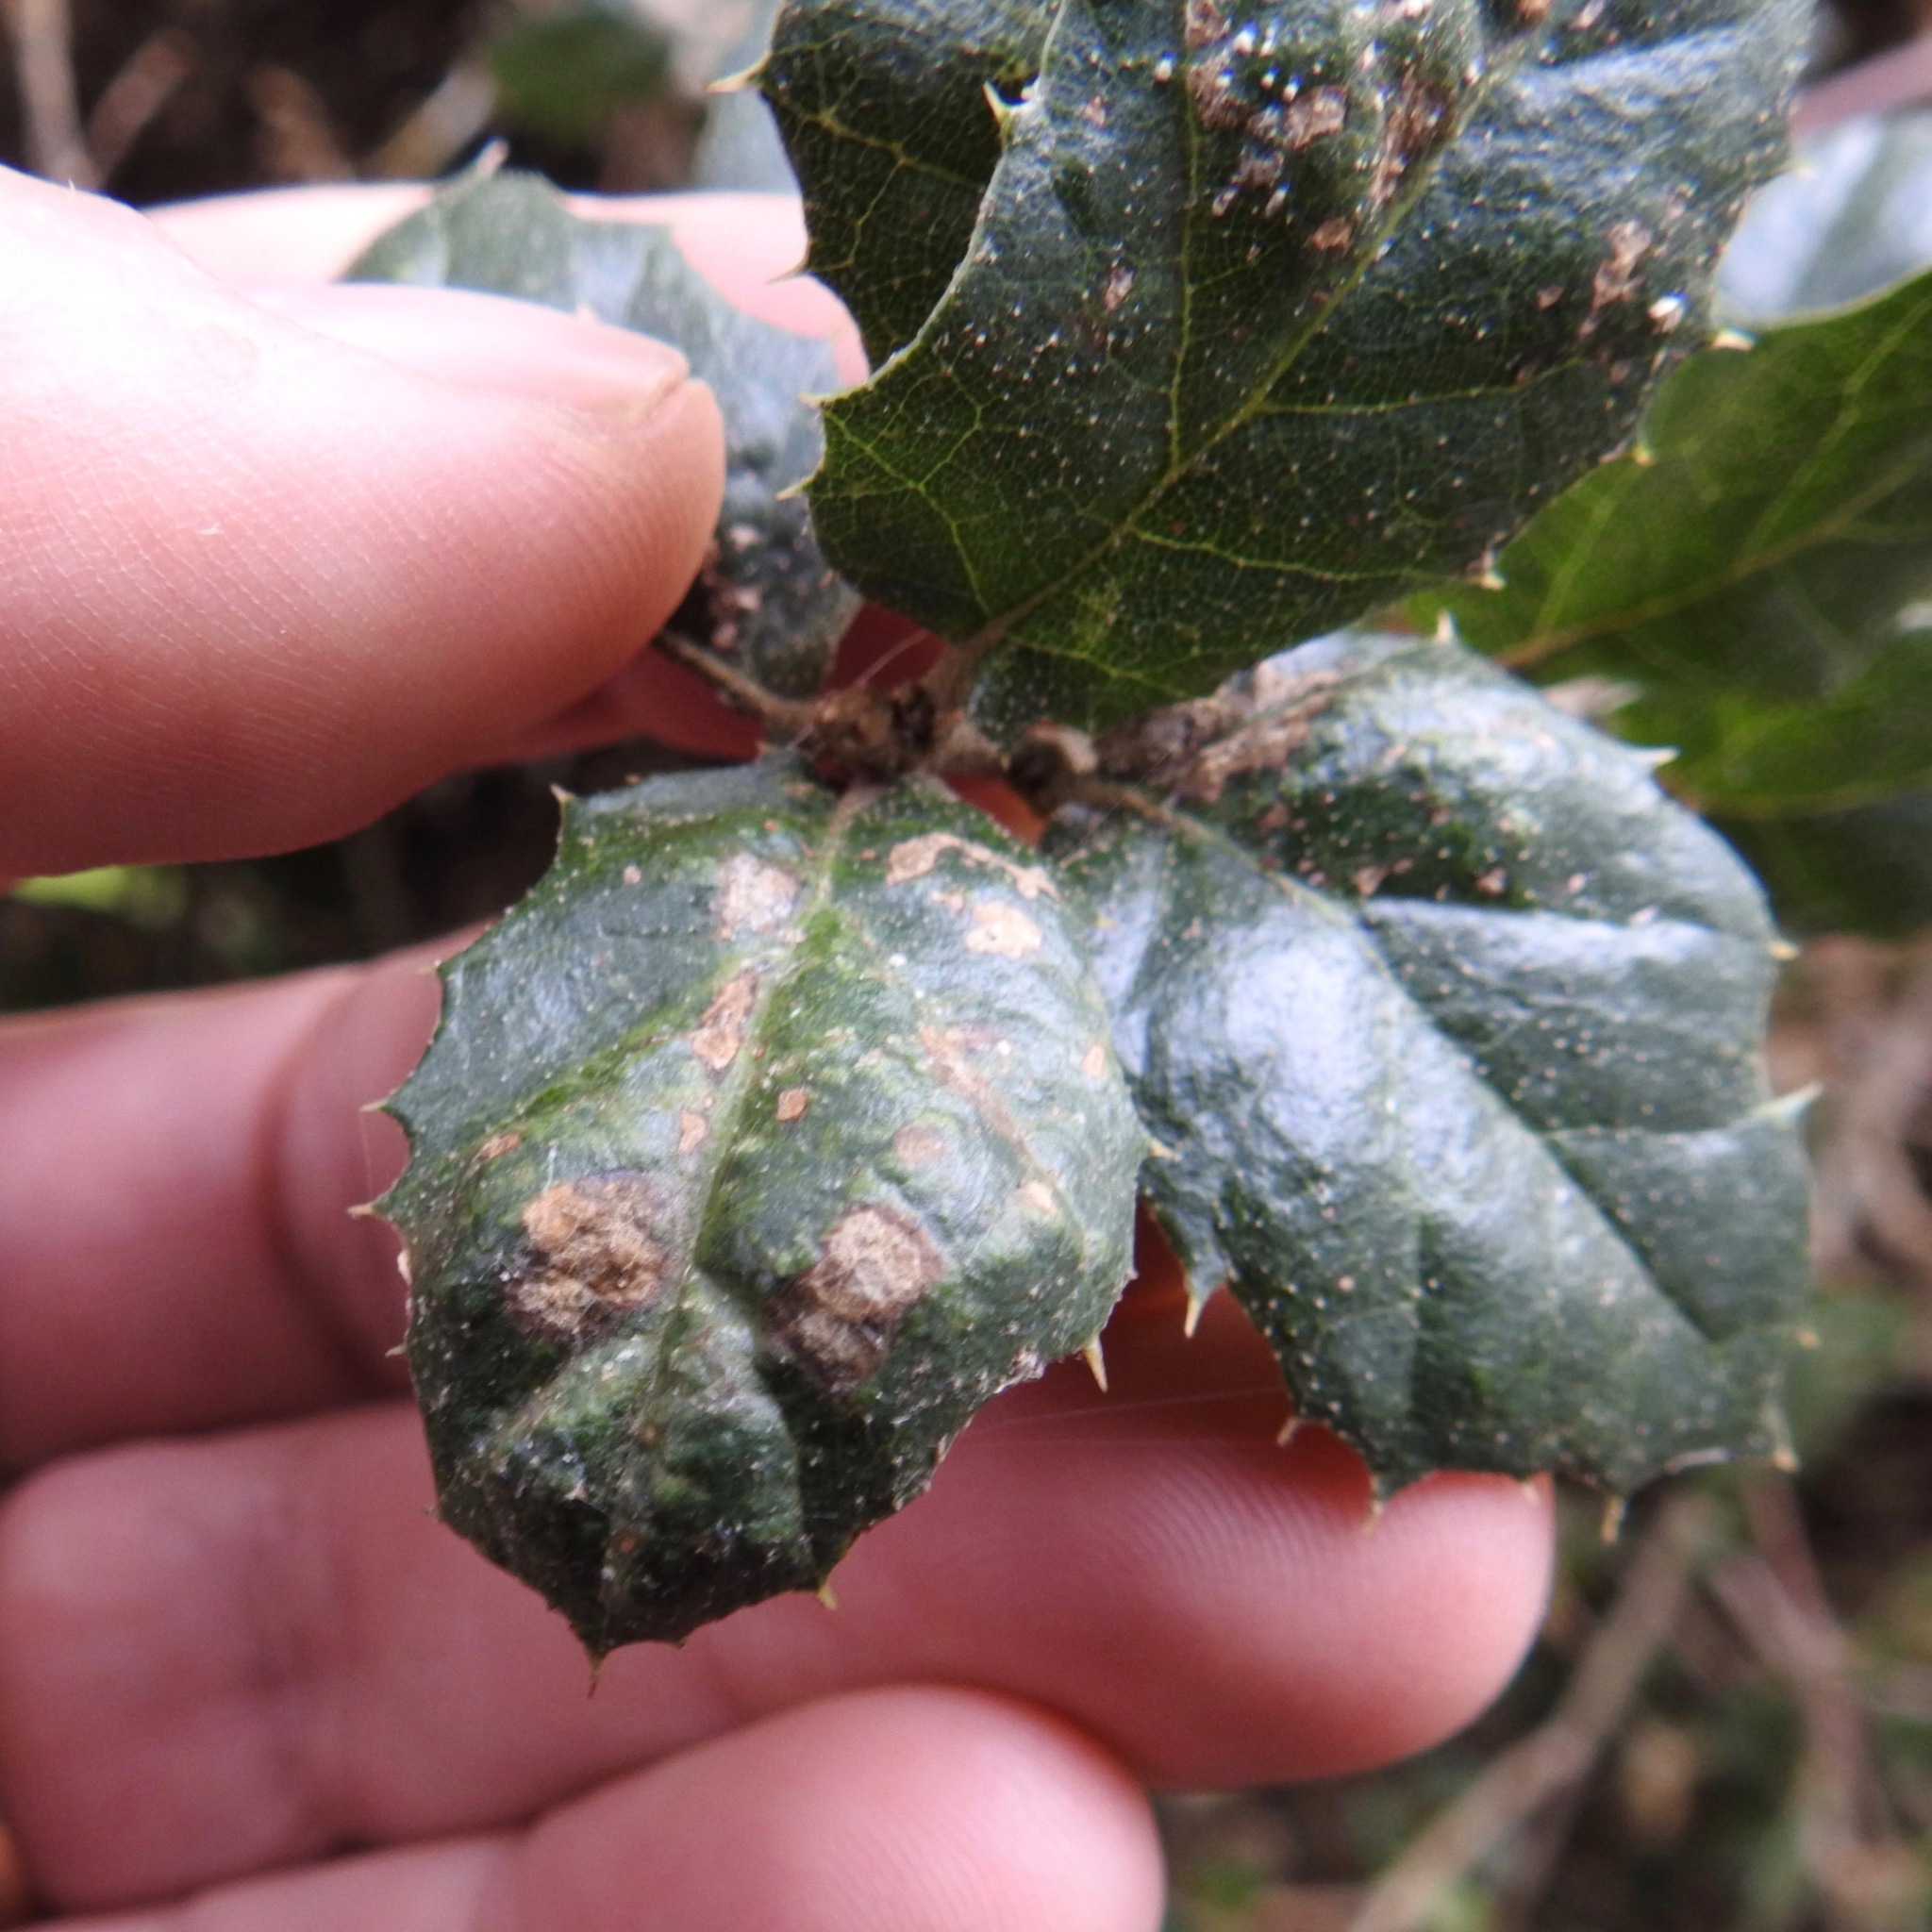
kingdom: Animalia
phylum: Arthropoda
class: Arachnida
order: Trombidiformes
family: Eriophyidae
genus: Aceria
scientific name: Aceria
